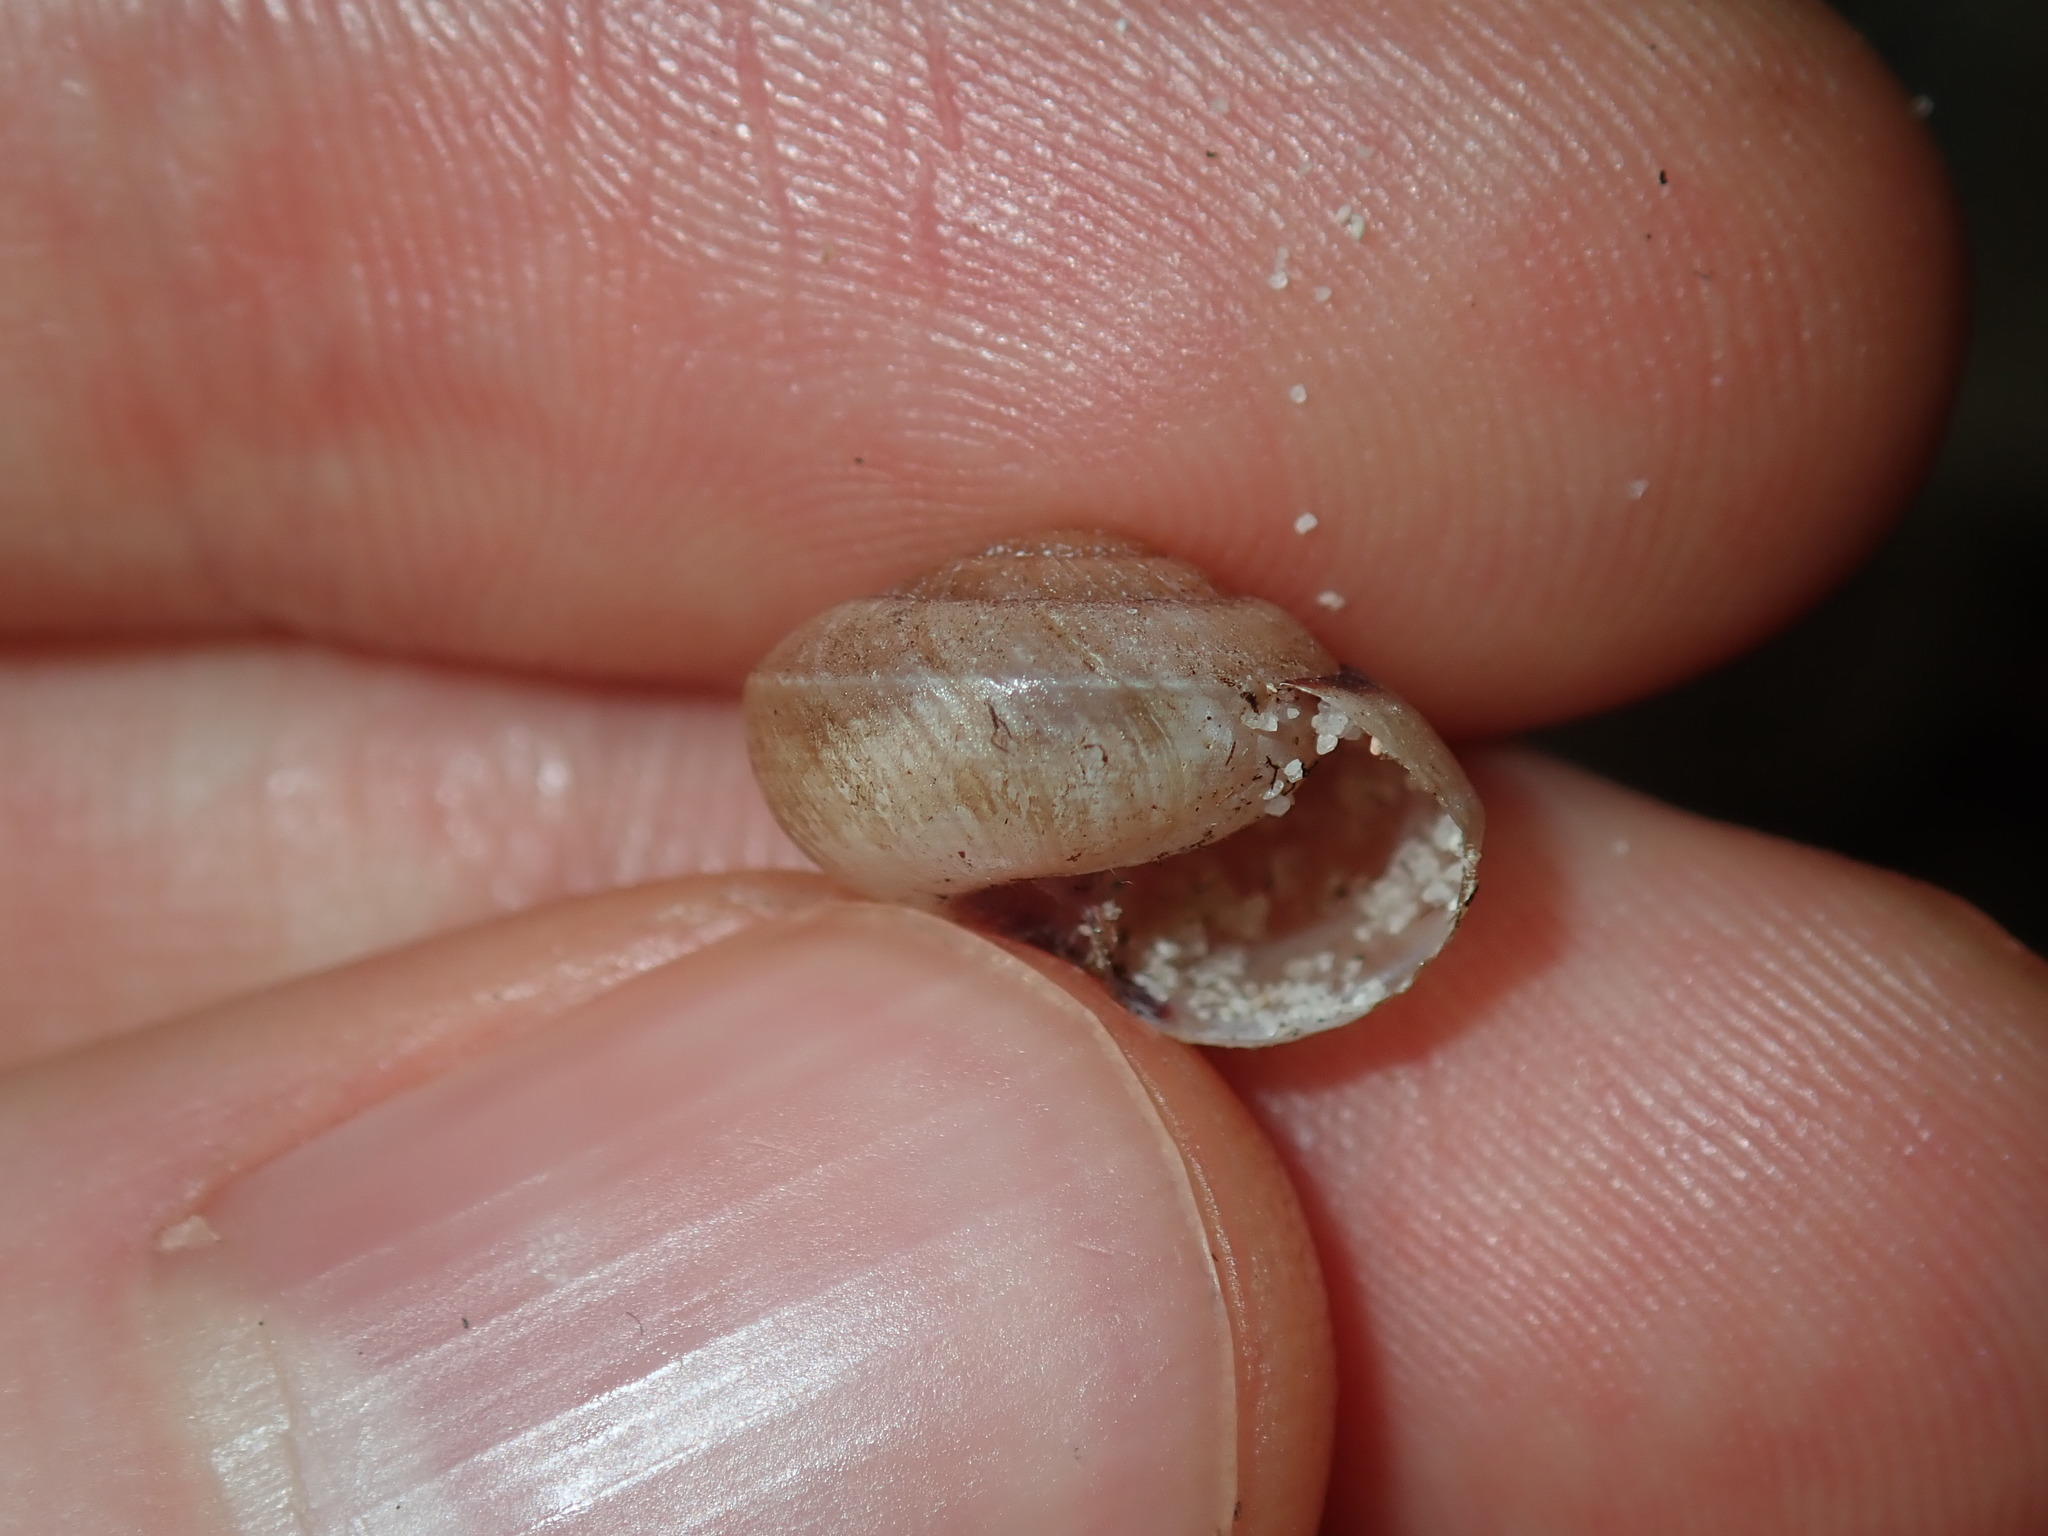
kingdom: Animalia
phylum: Mollusca
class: Gastropoda
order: Stylommatophora
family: Camaenidae
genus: Galadistes
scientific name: Galadistes akubra
